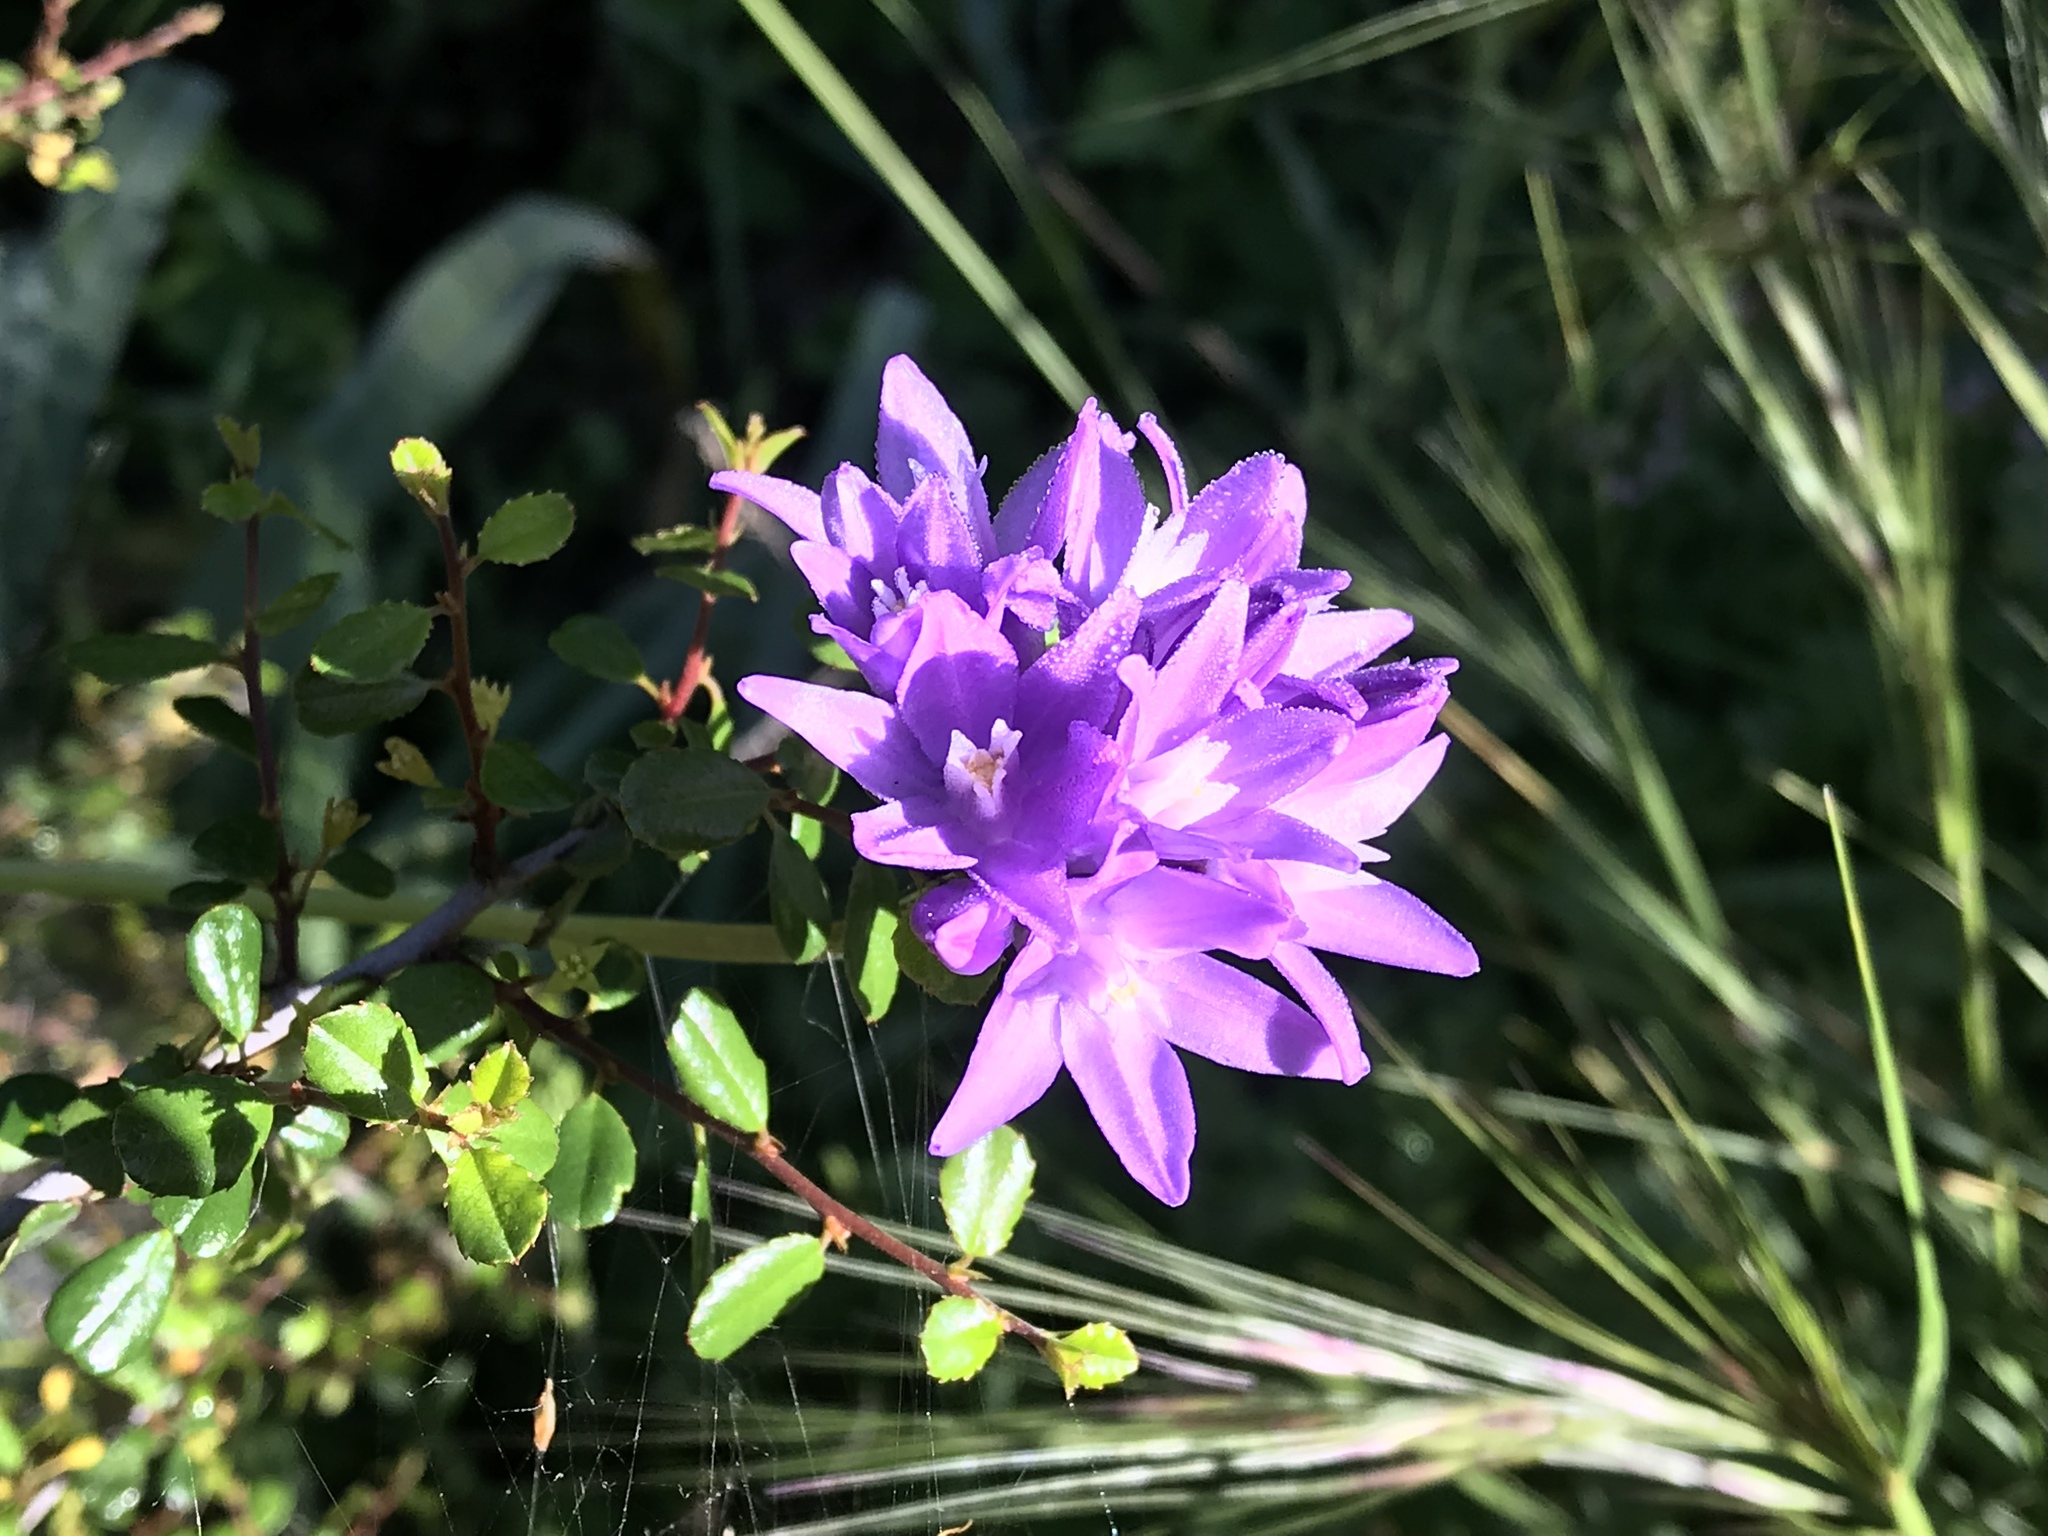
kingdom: Plantae
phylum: Tracheophyta
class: Liliopsida
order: Asparagales
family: Asparagaceae
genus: Dipterostemon
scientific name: Dipterostemon capitatus
